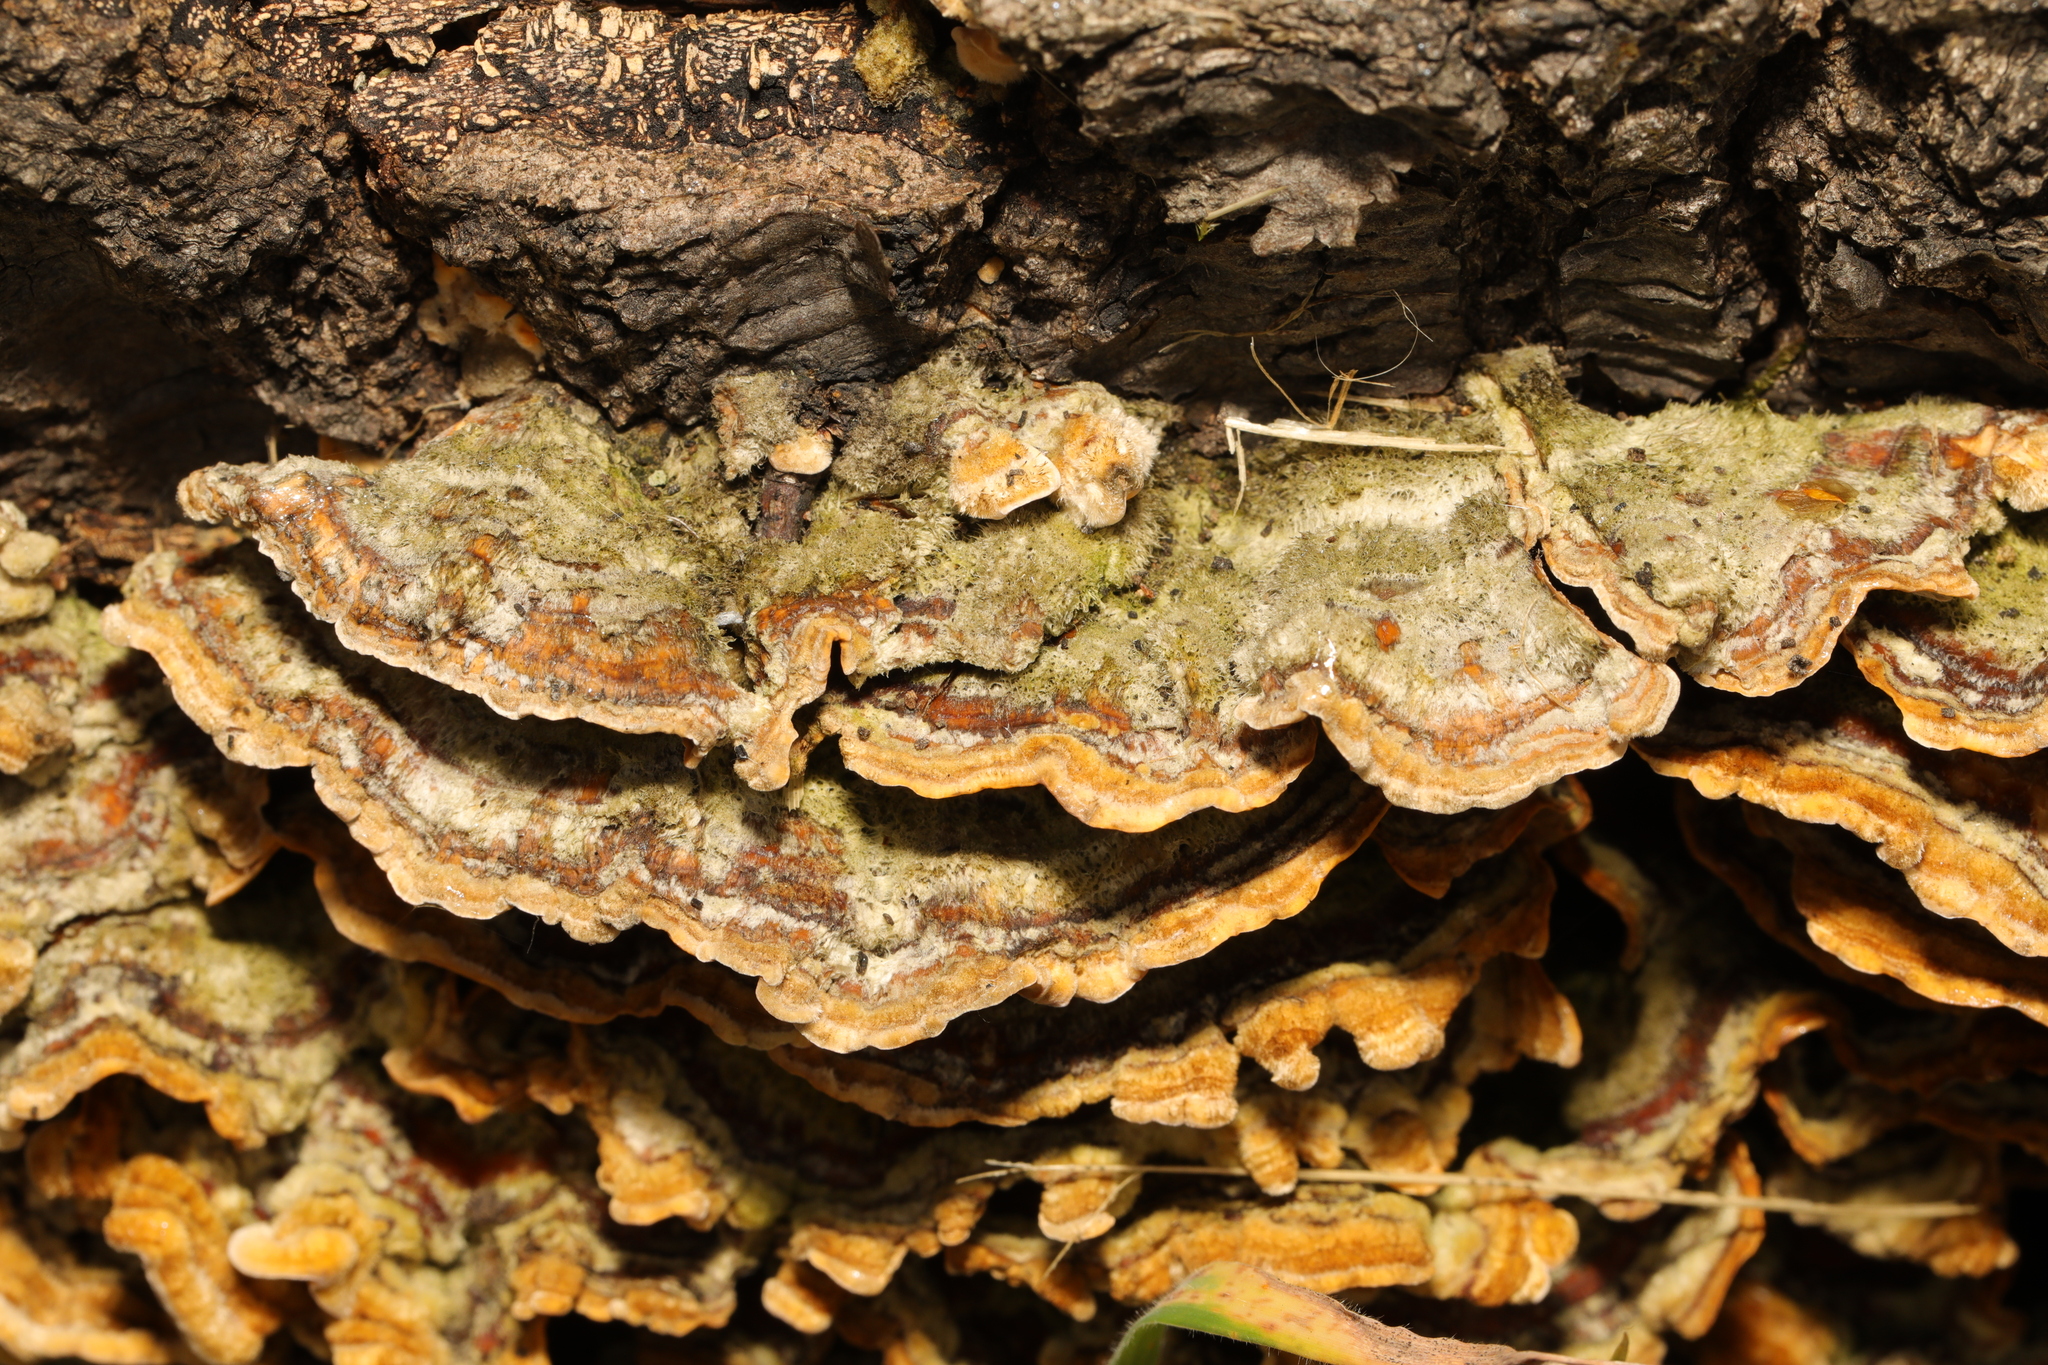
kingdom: Fungi
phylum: Basidiomycota
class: Agaricomycetes
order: Russulales
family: Stereaceae
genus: Stereum
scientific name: Stereum hirsutum
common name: Hairy curtain crust
